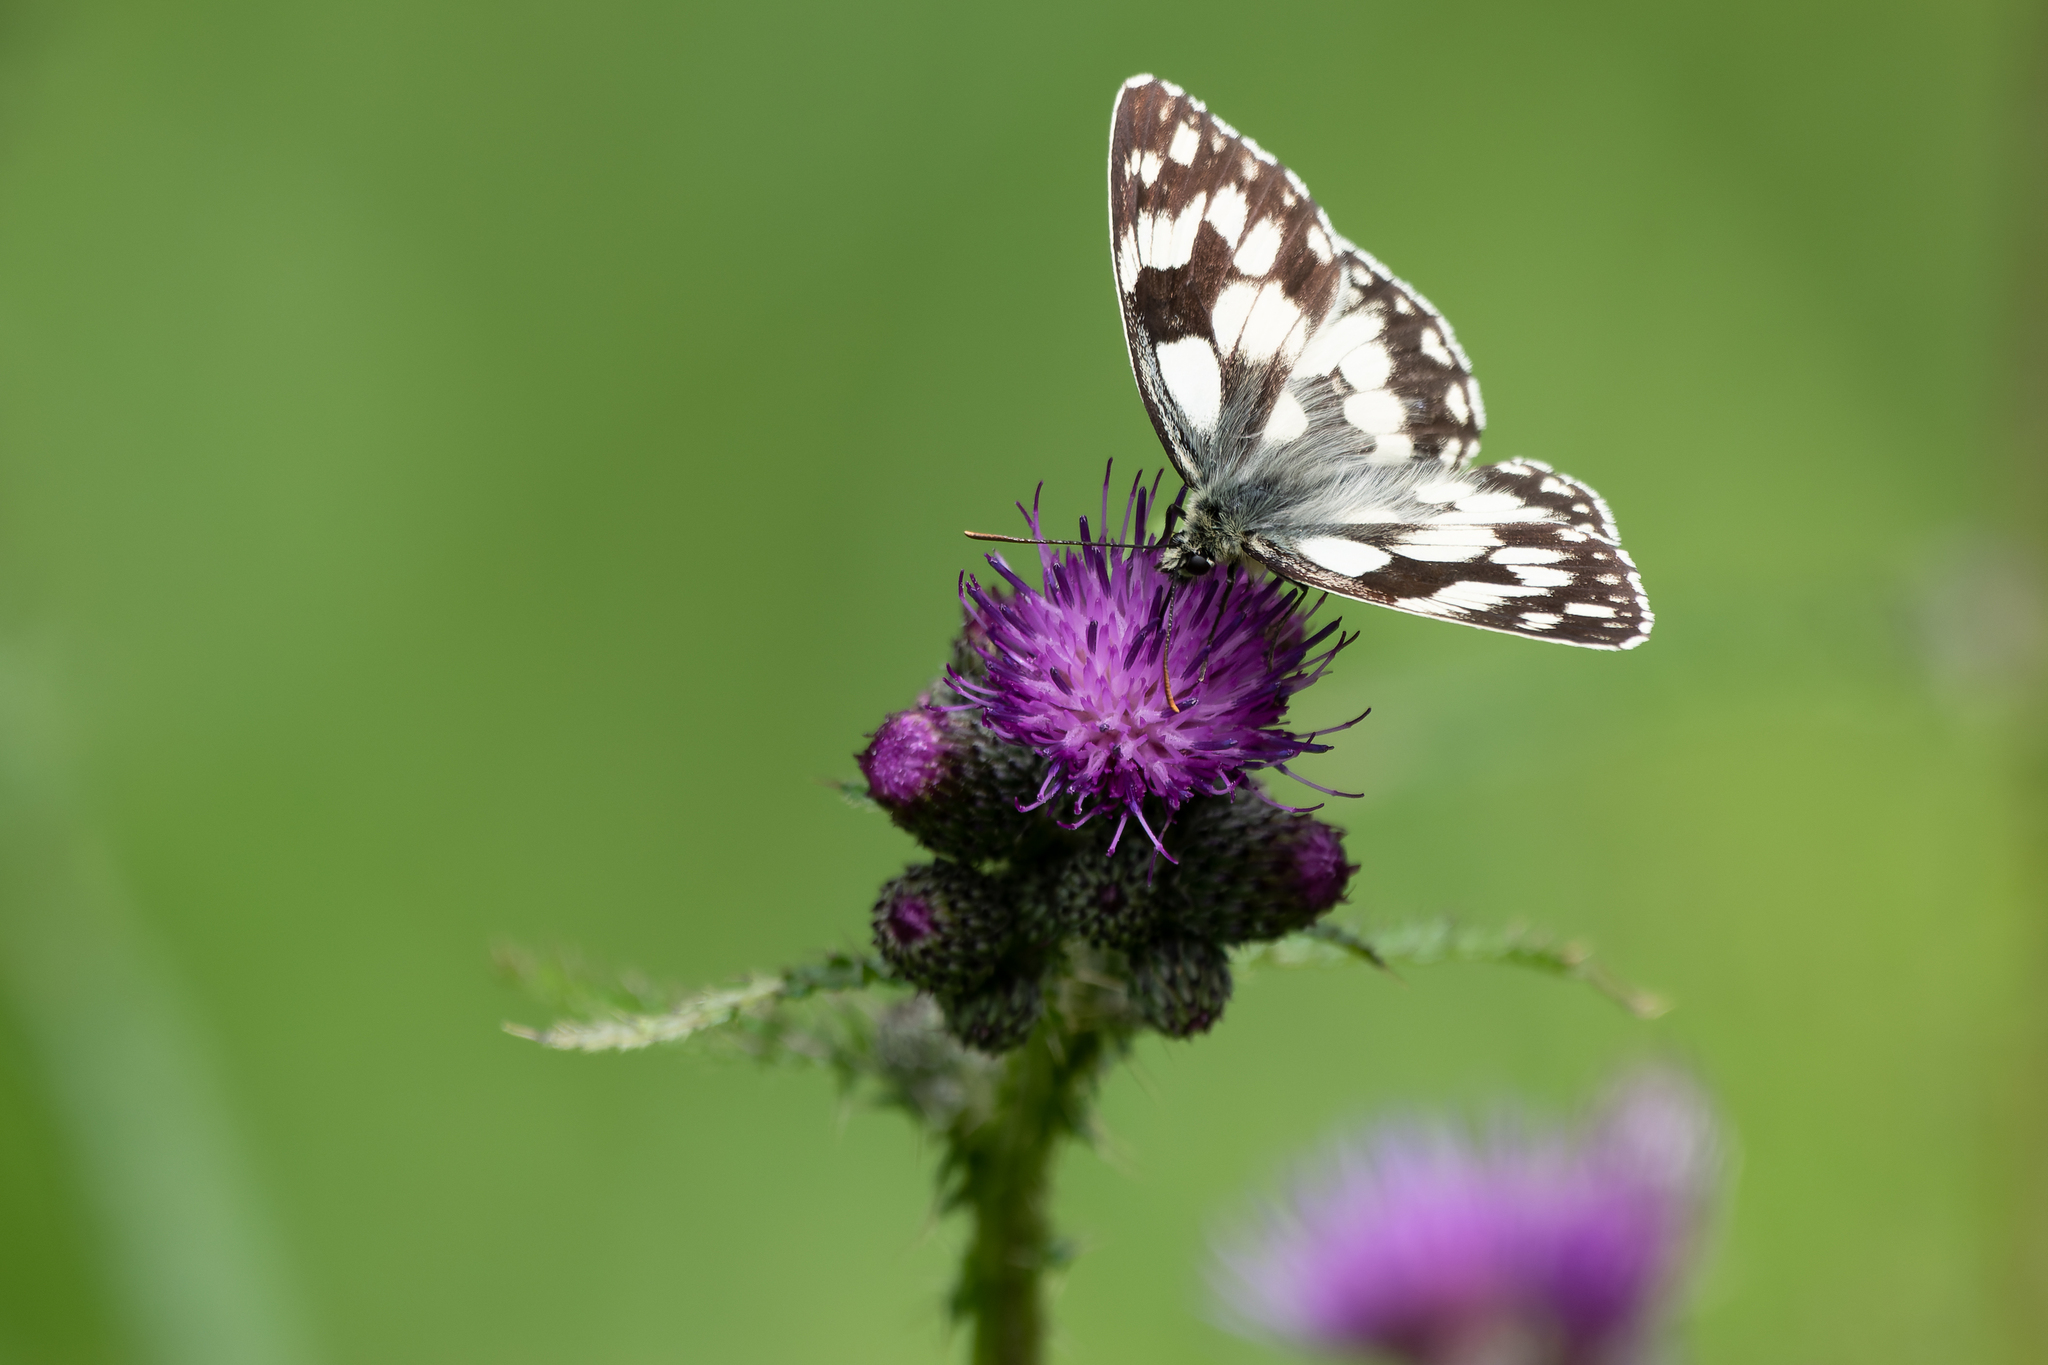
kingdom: Animalia
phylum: Arthropoda
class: Insecta
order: Lepidoptera
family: Nymphalidae
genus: Melanargia
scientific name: Melanargia galathea
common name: Marbled white
